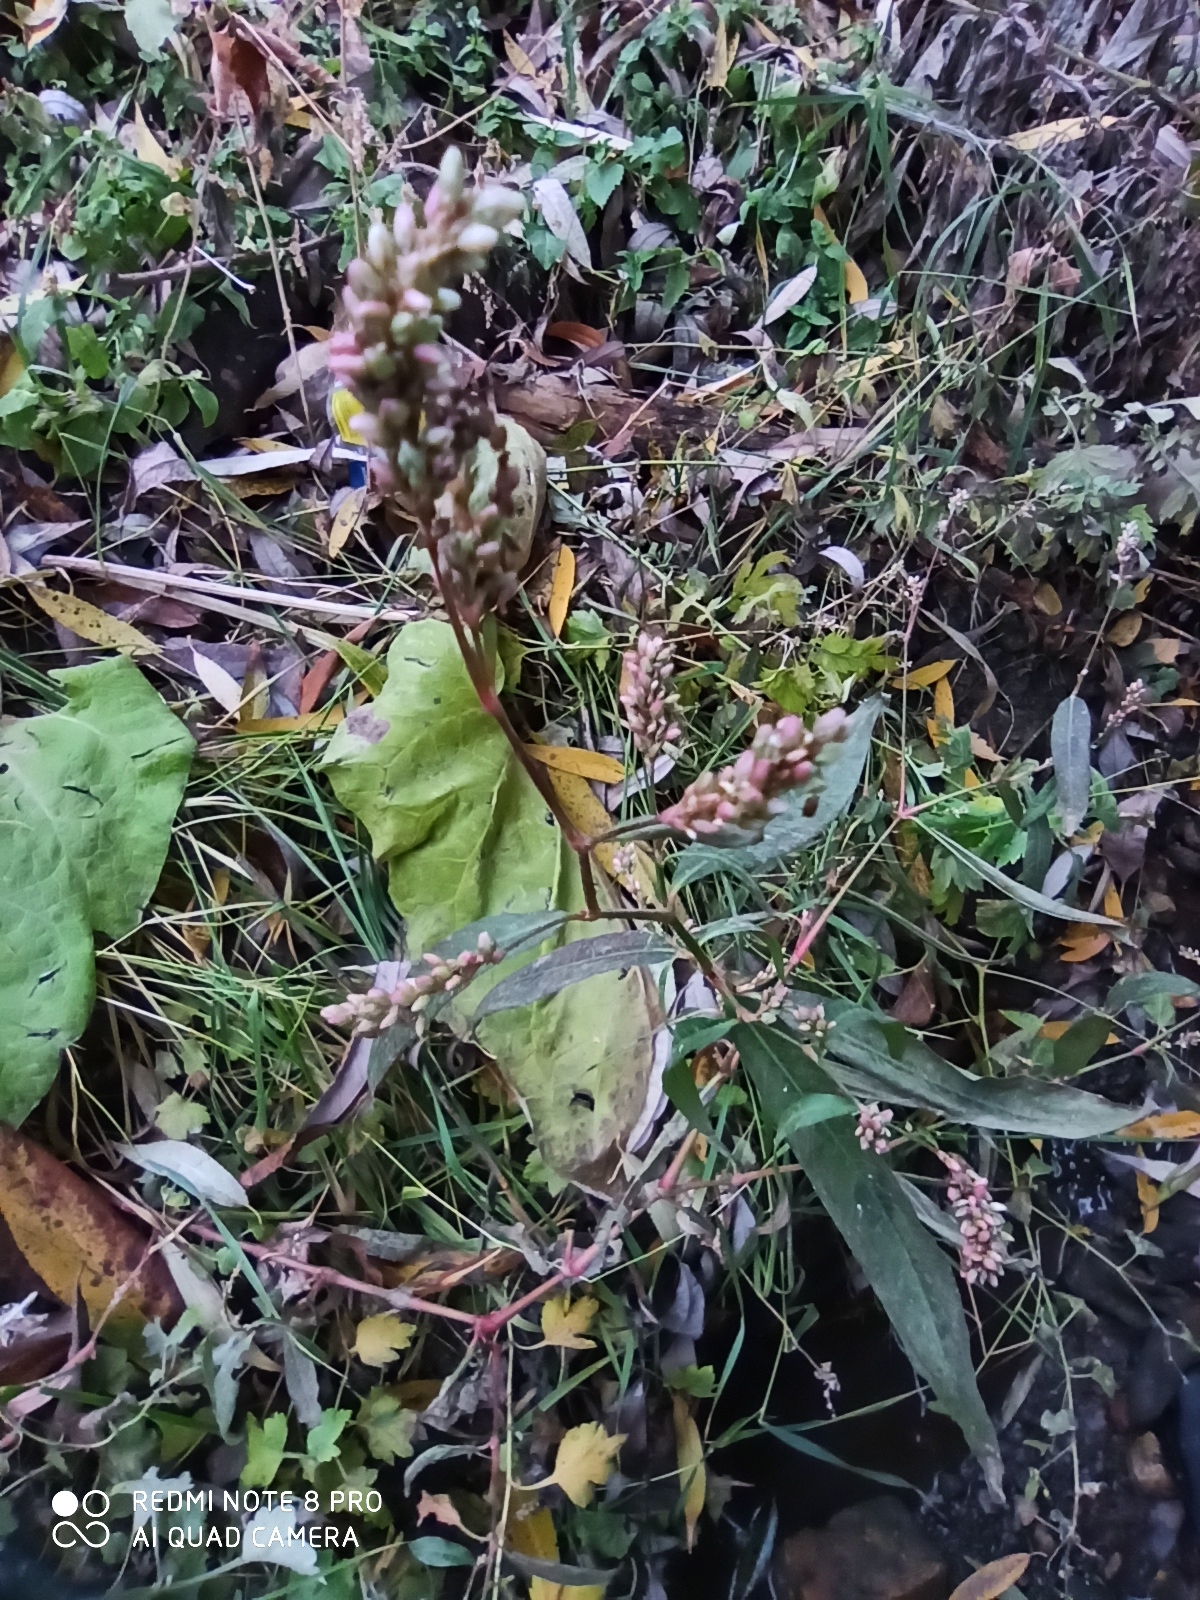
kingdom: Plantae
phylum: Tracheophyta
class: Magnoliopsida
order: Caryophyllales
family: Polygonaceae
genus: Persicaria
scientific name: Persicaria maculosa
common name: Redshank
